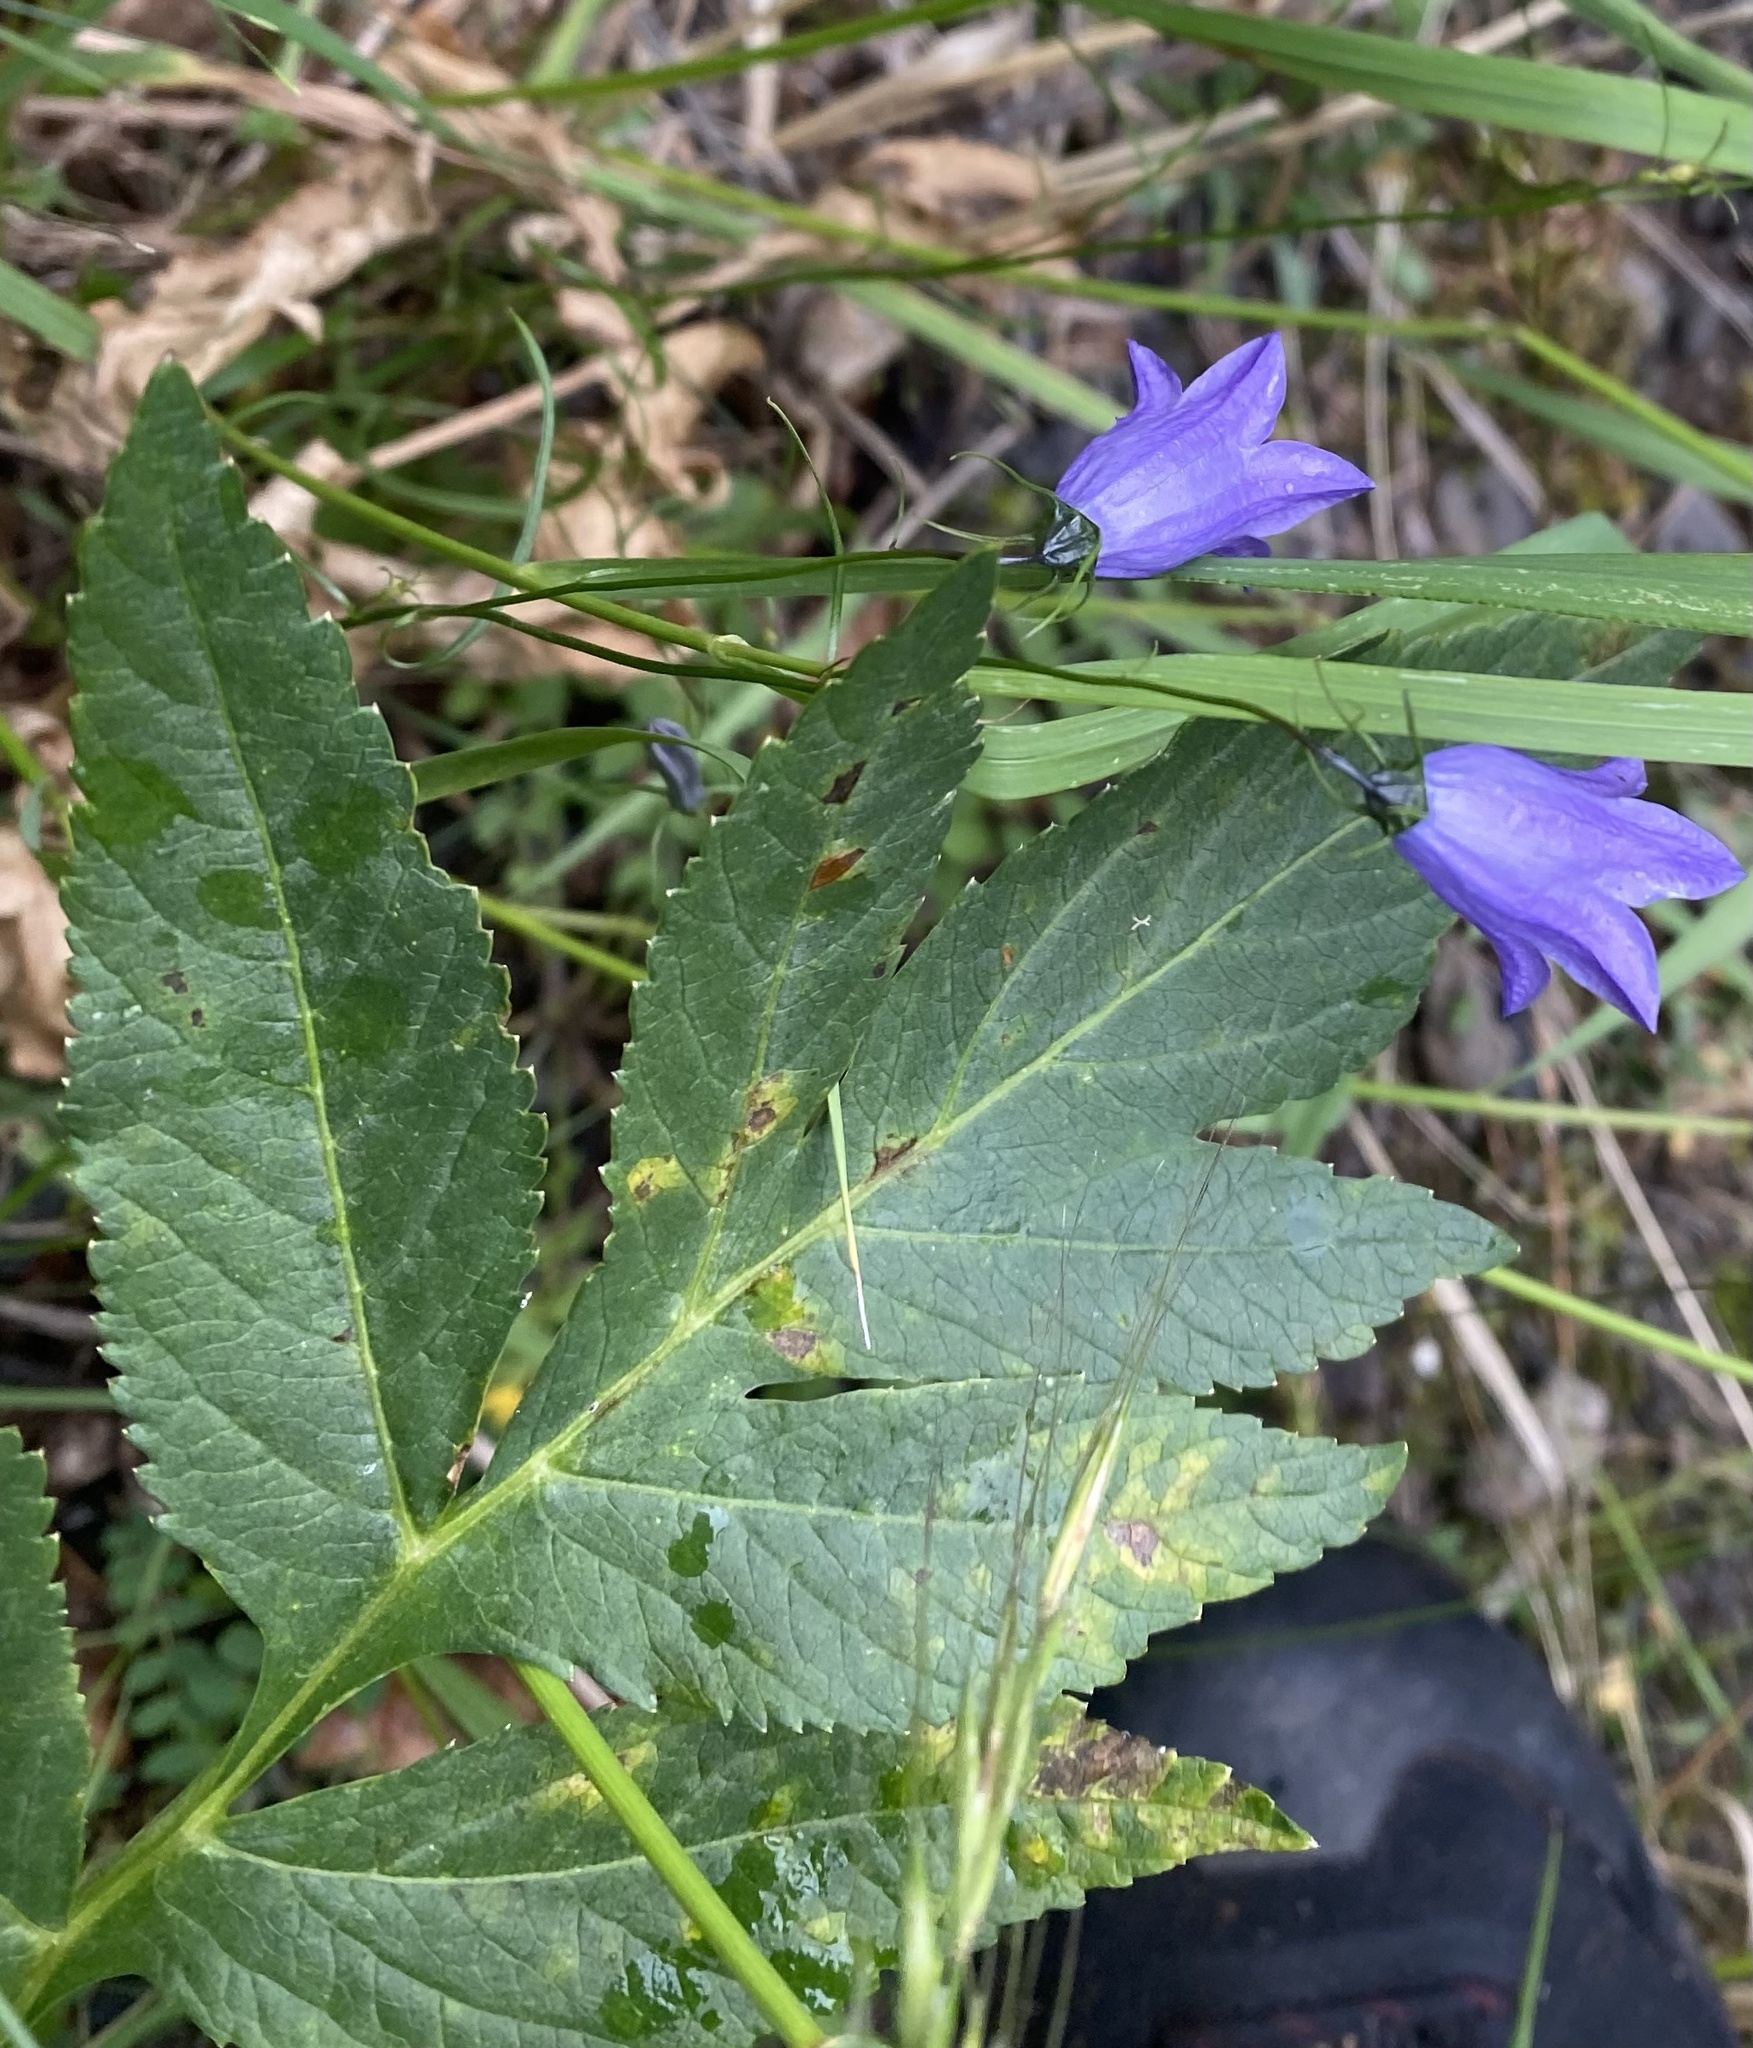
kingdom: Plantae
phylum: Tracheophyta
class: Magnoliopsida
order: Apiales
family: Apiaceae
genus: Angelica
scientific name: Angelica decurrens
